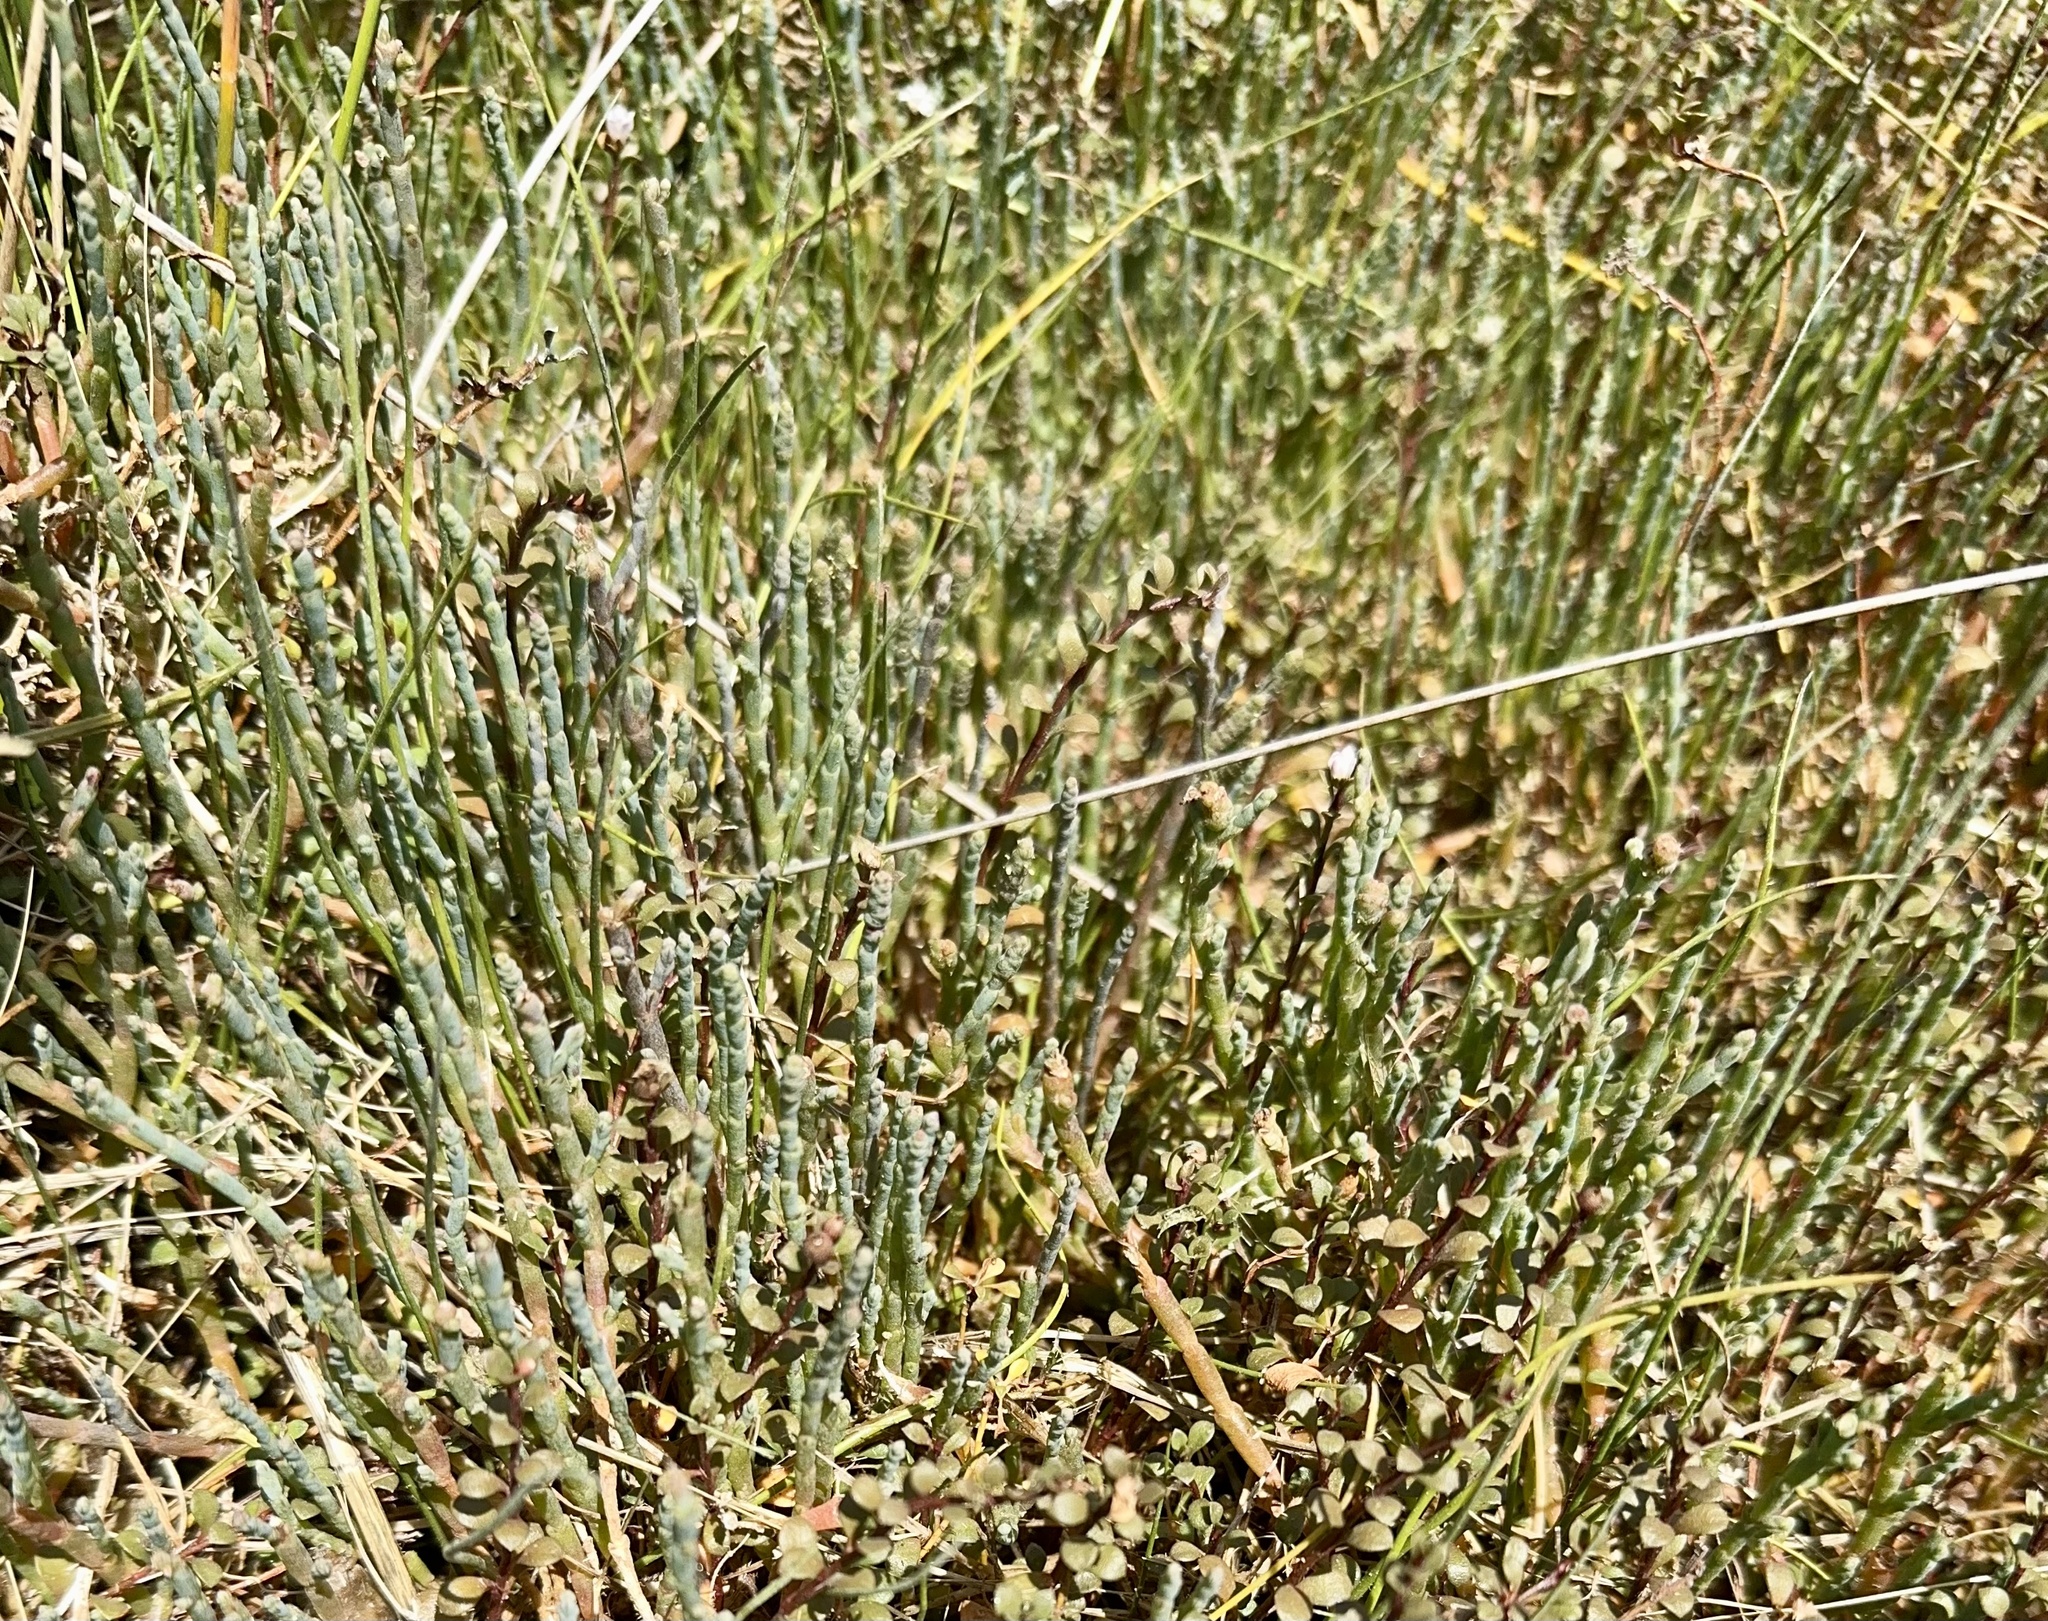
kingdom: Plantae
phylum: Tracheophyta
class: Magnoliopsida
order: Caryophyllales
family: Amaranthaceae
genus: Salicornia
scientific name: Salicornia quinqueflora
